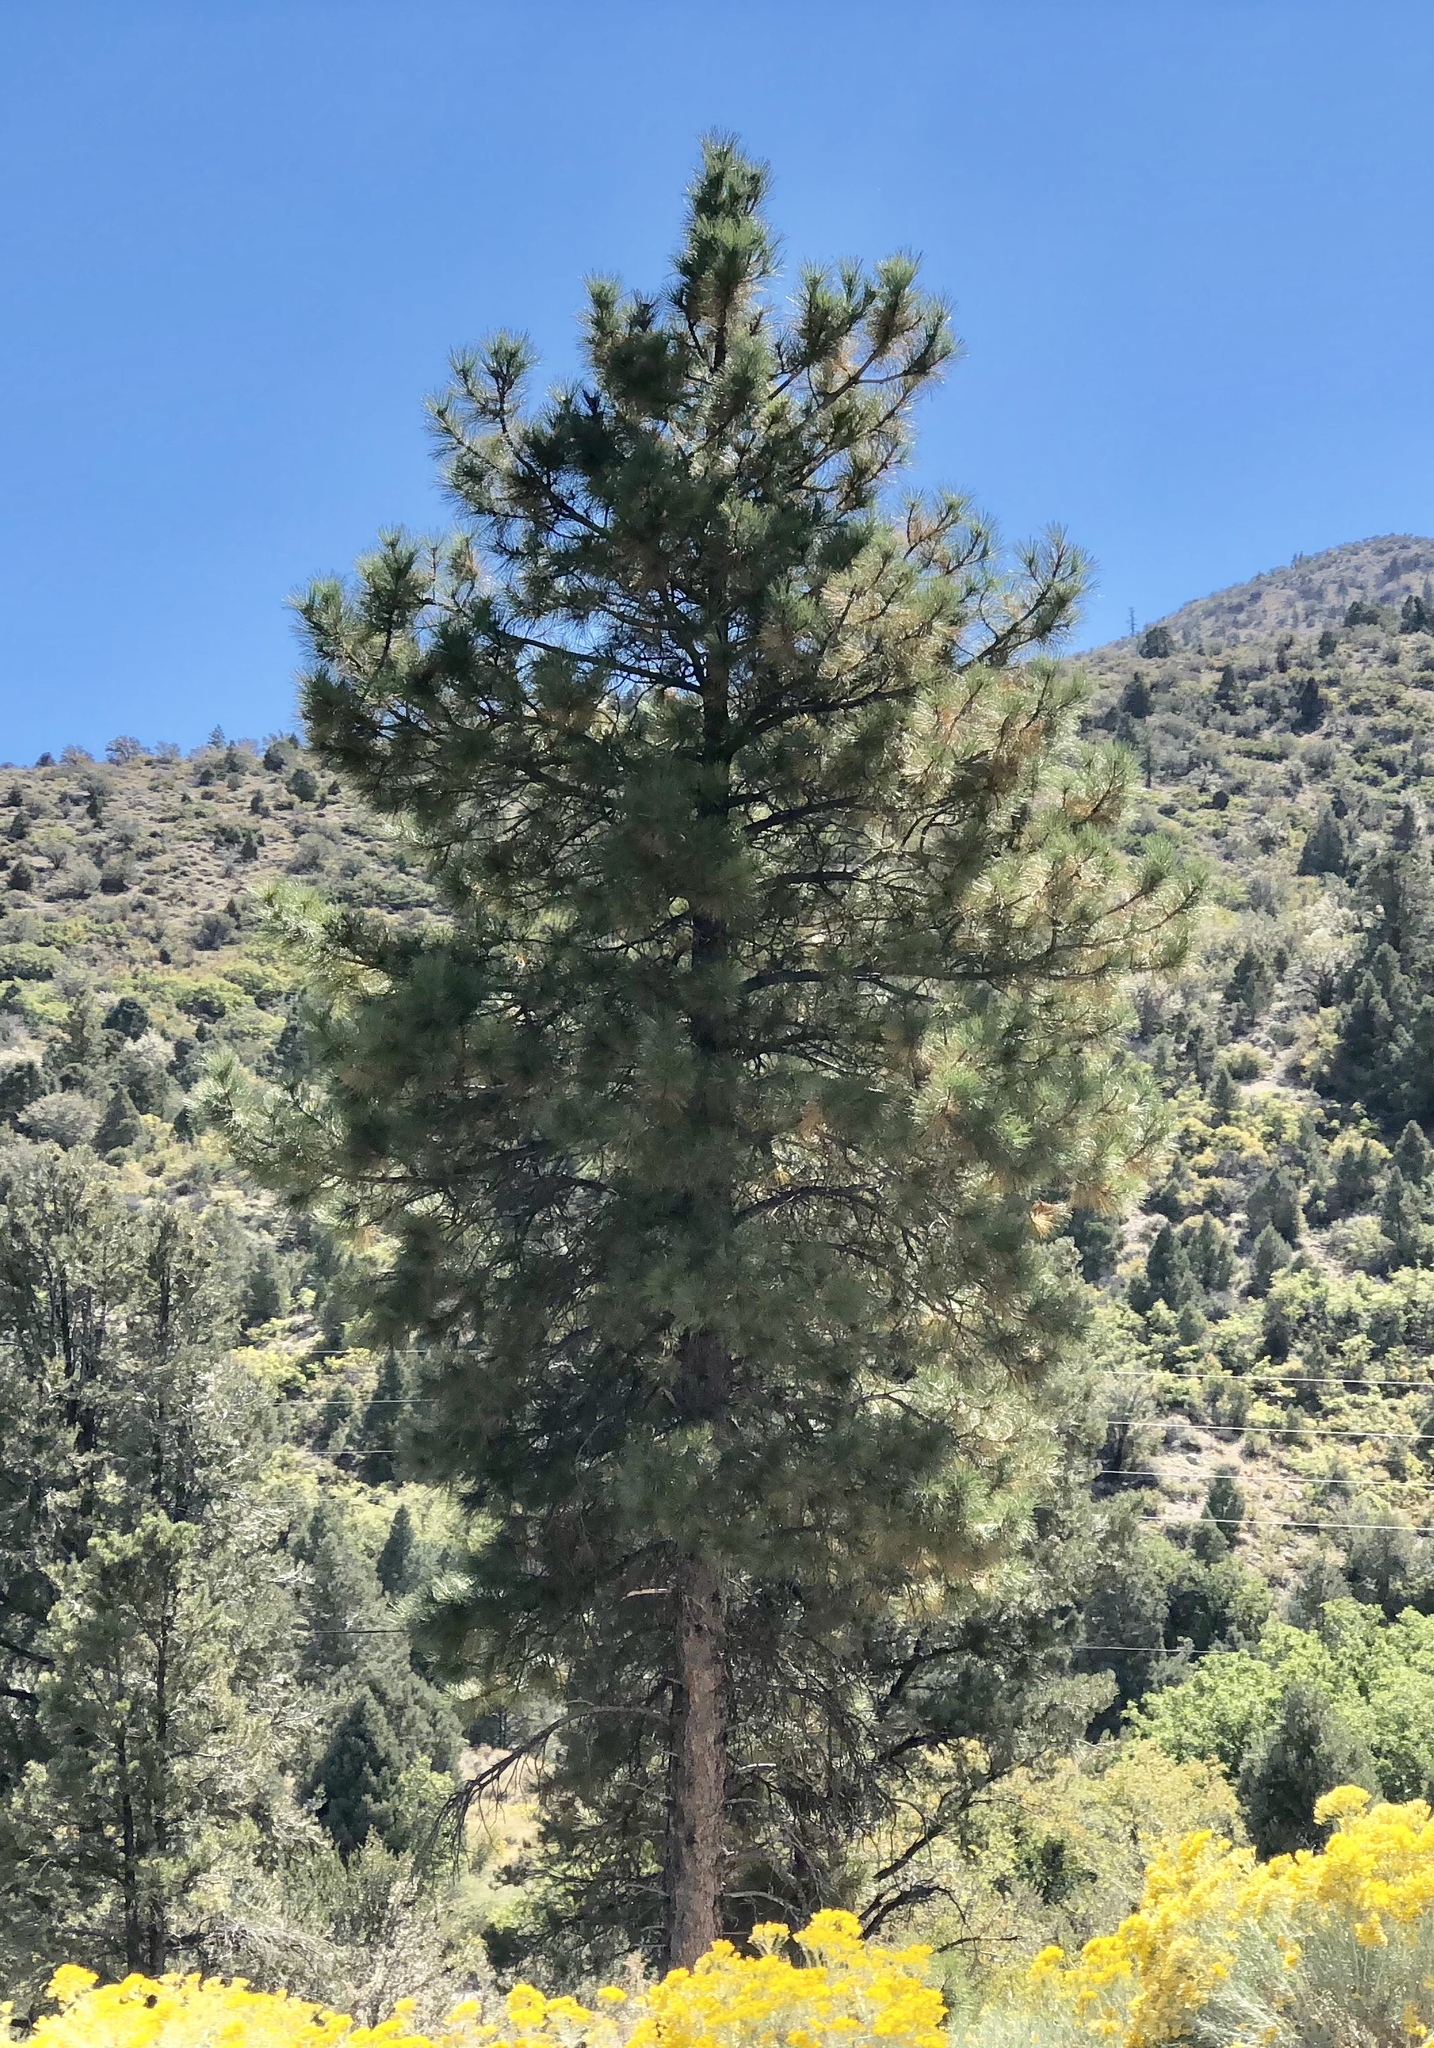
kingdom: Plantae
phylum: Tracheophyta
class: Pinopsida
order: Pinales
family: Pinaceae
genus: Pinus
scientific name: Pinus ponderosa
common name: Western yellow-pine
